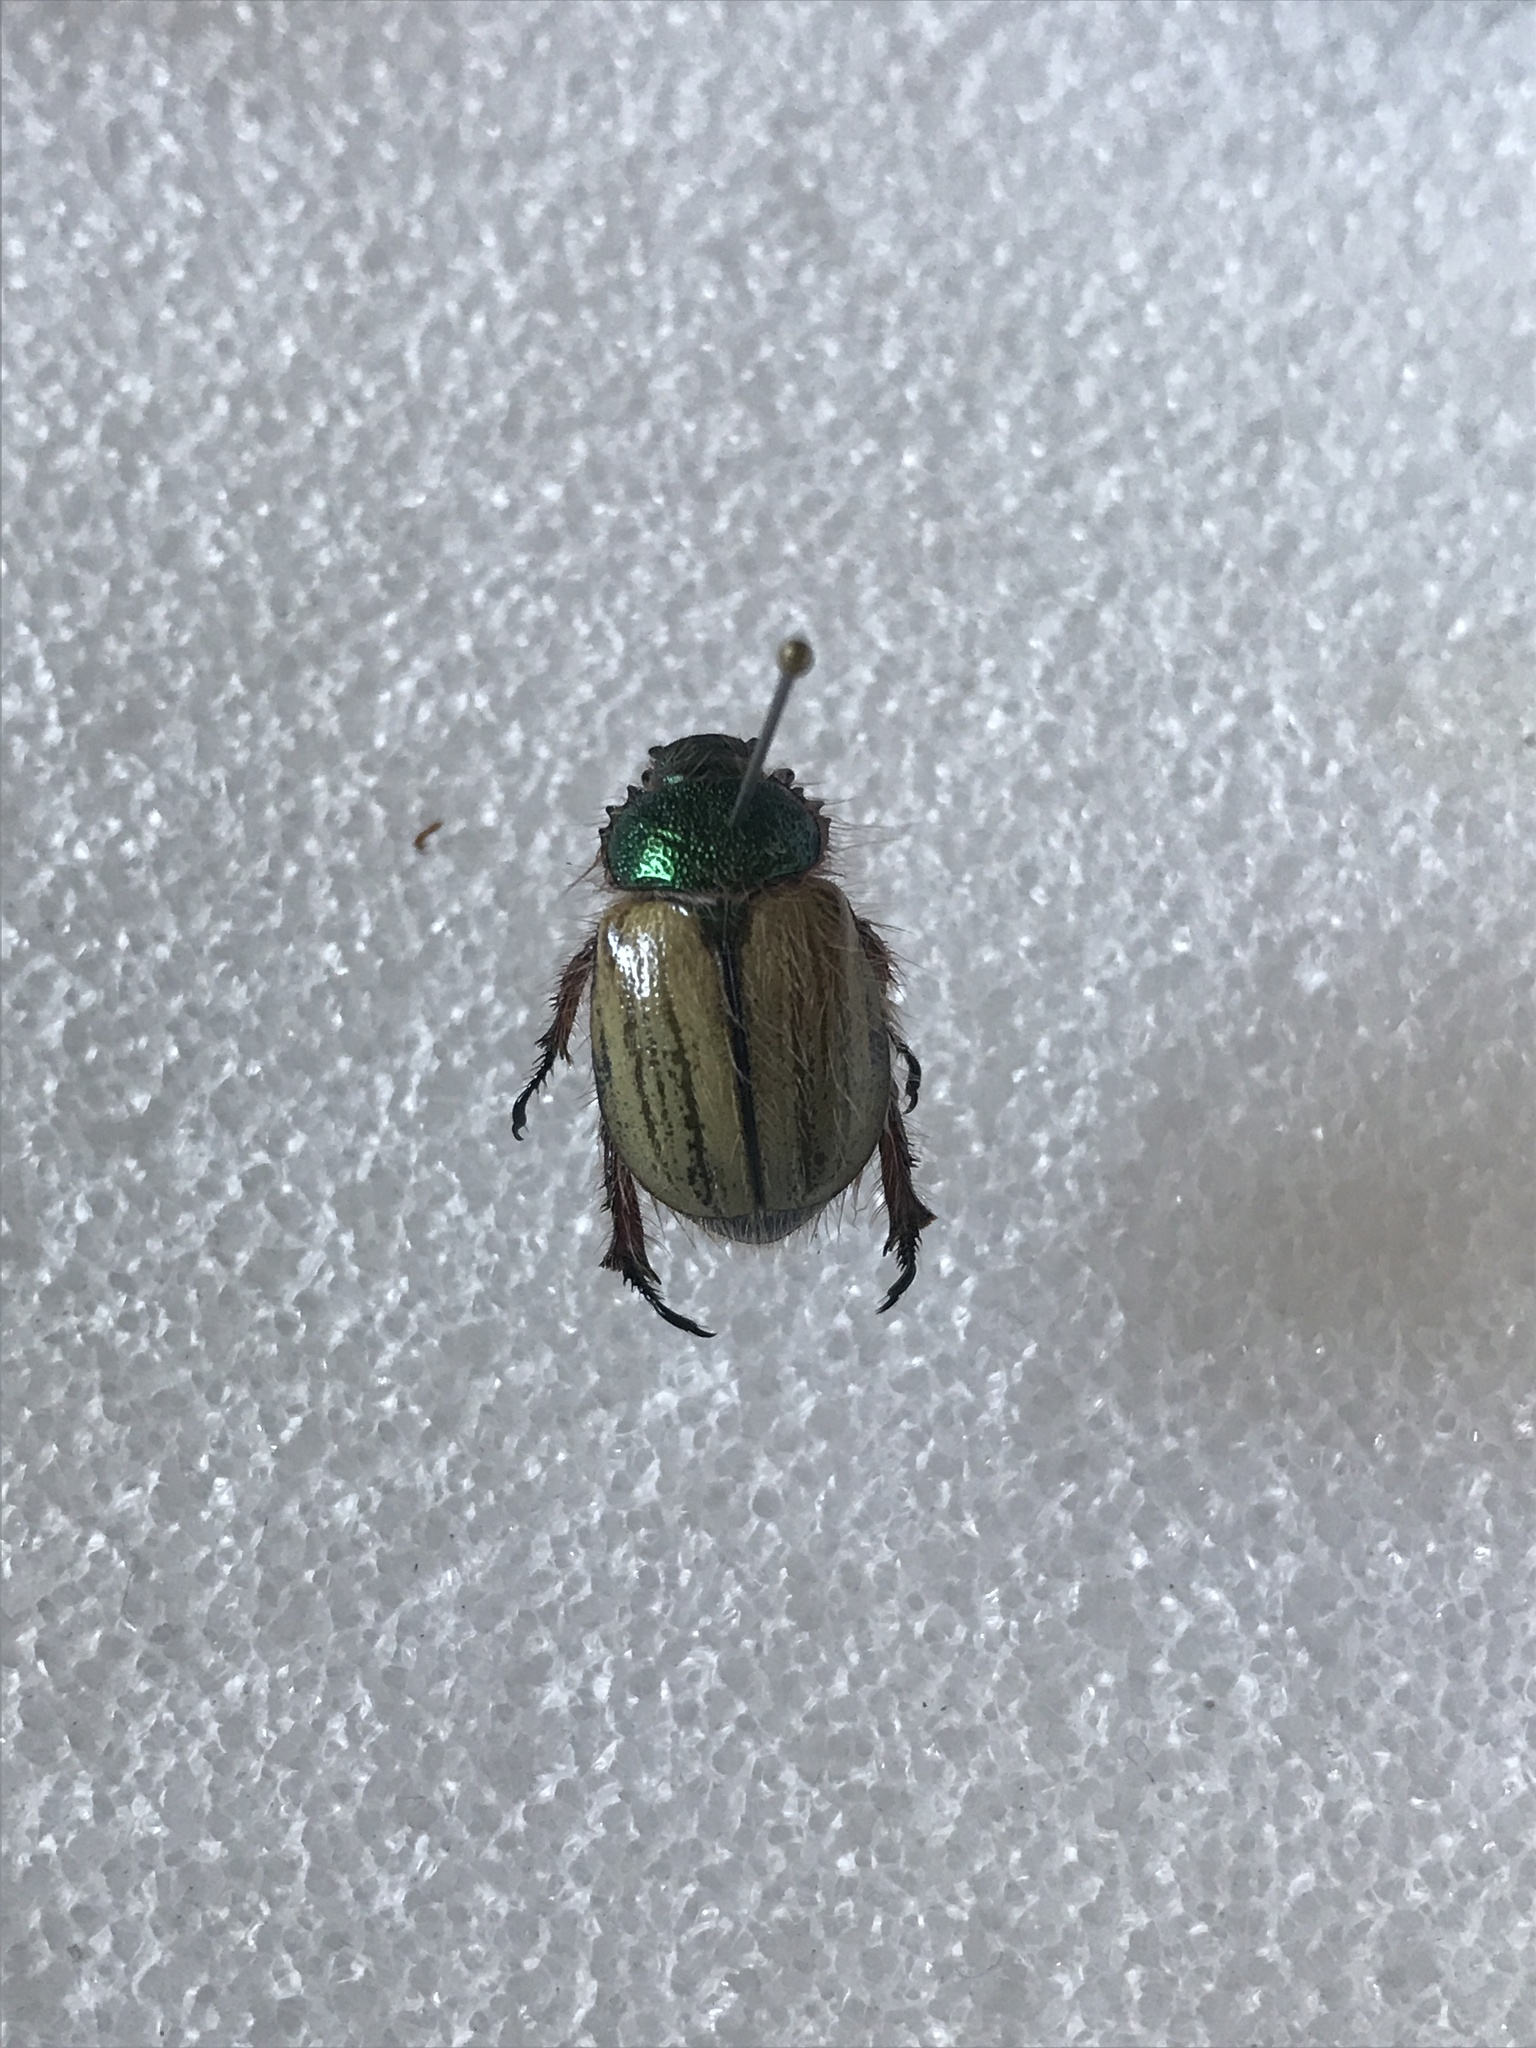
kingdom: Animalia
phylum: Arthropoda
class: Insecta
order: Coleoptera
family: Scarabaeidae
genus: Paracotalpa
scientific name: Paracotalpa puncticollis
